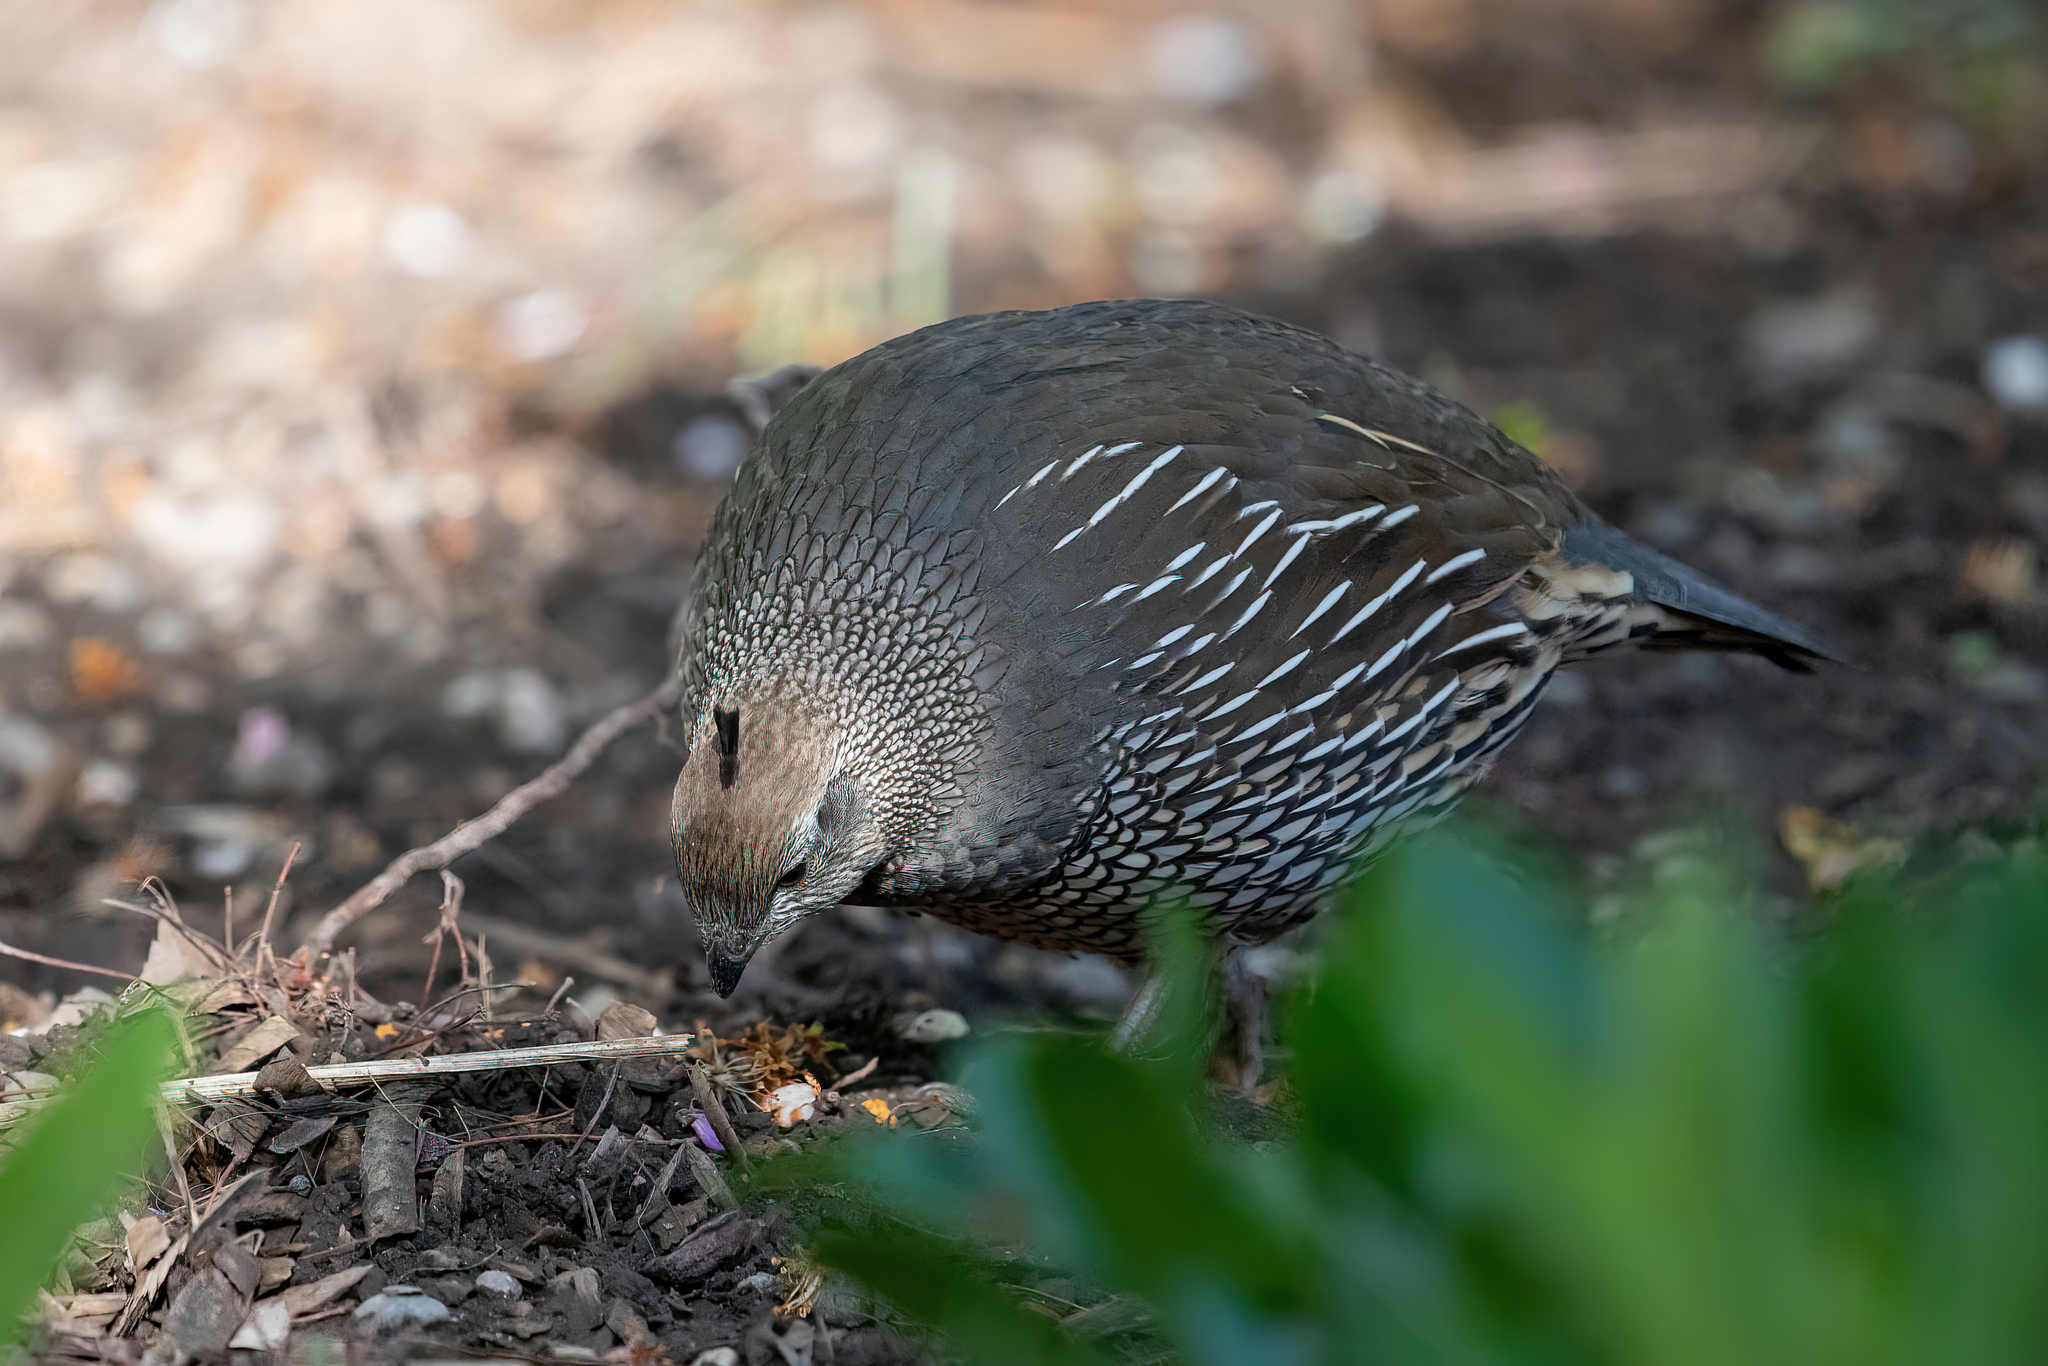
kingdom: Animalia
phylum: Chordata
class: Aves
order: Galliformes
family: Odontophoridae
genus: Callipepla
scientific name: Callipepla californica
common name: California quail
